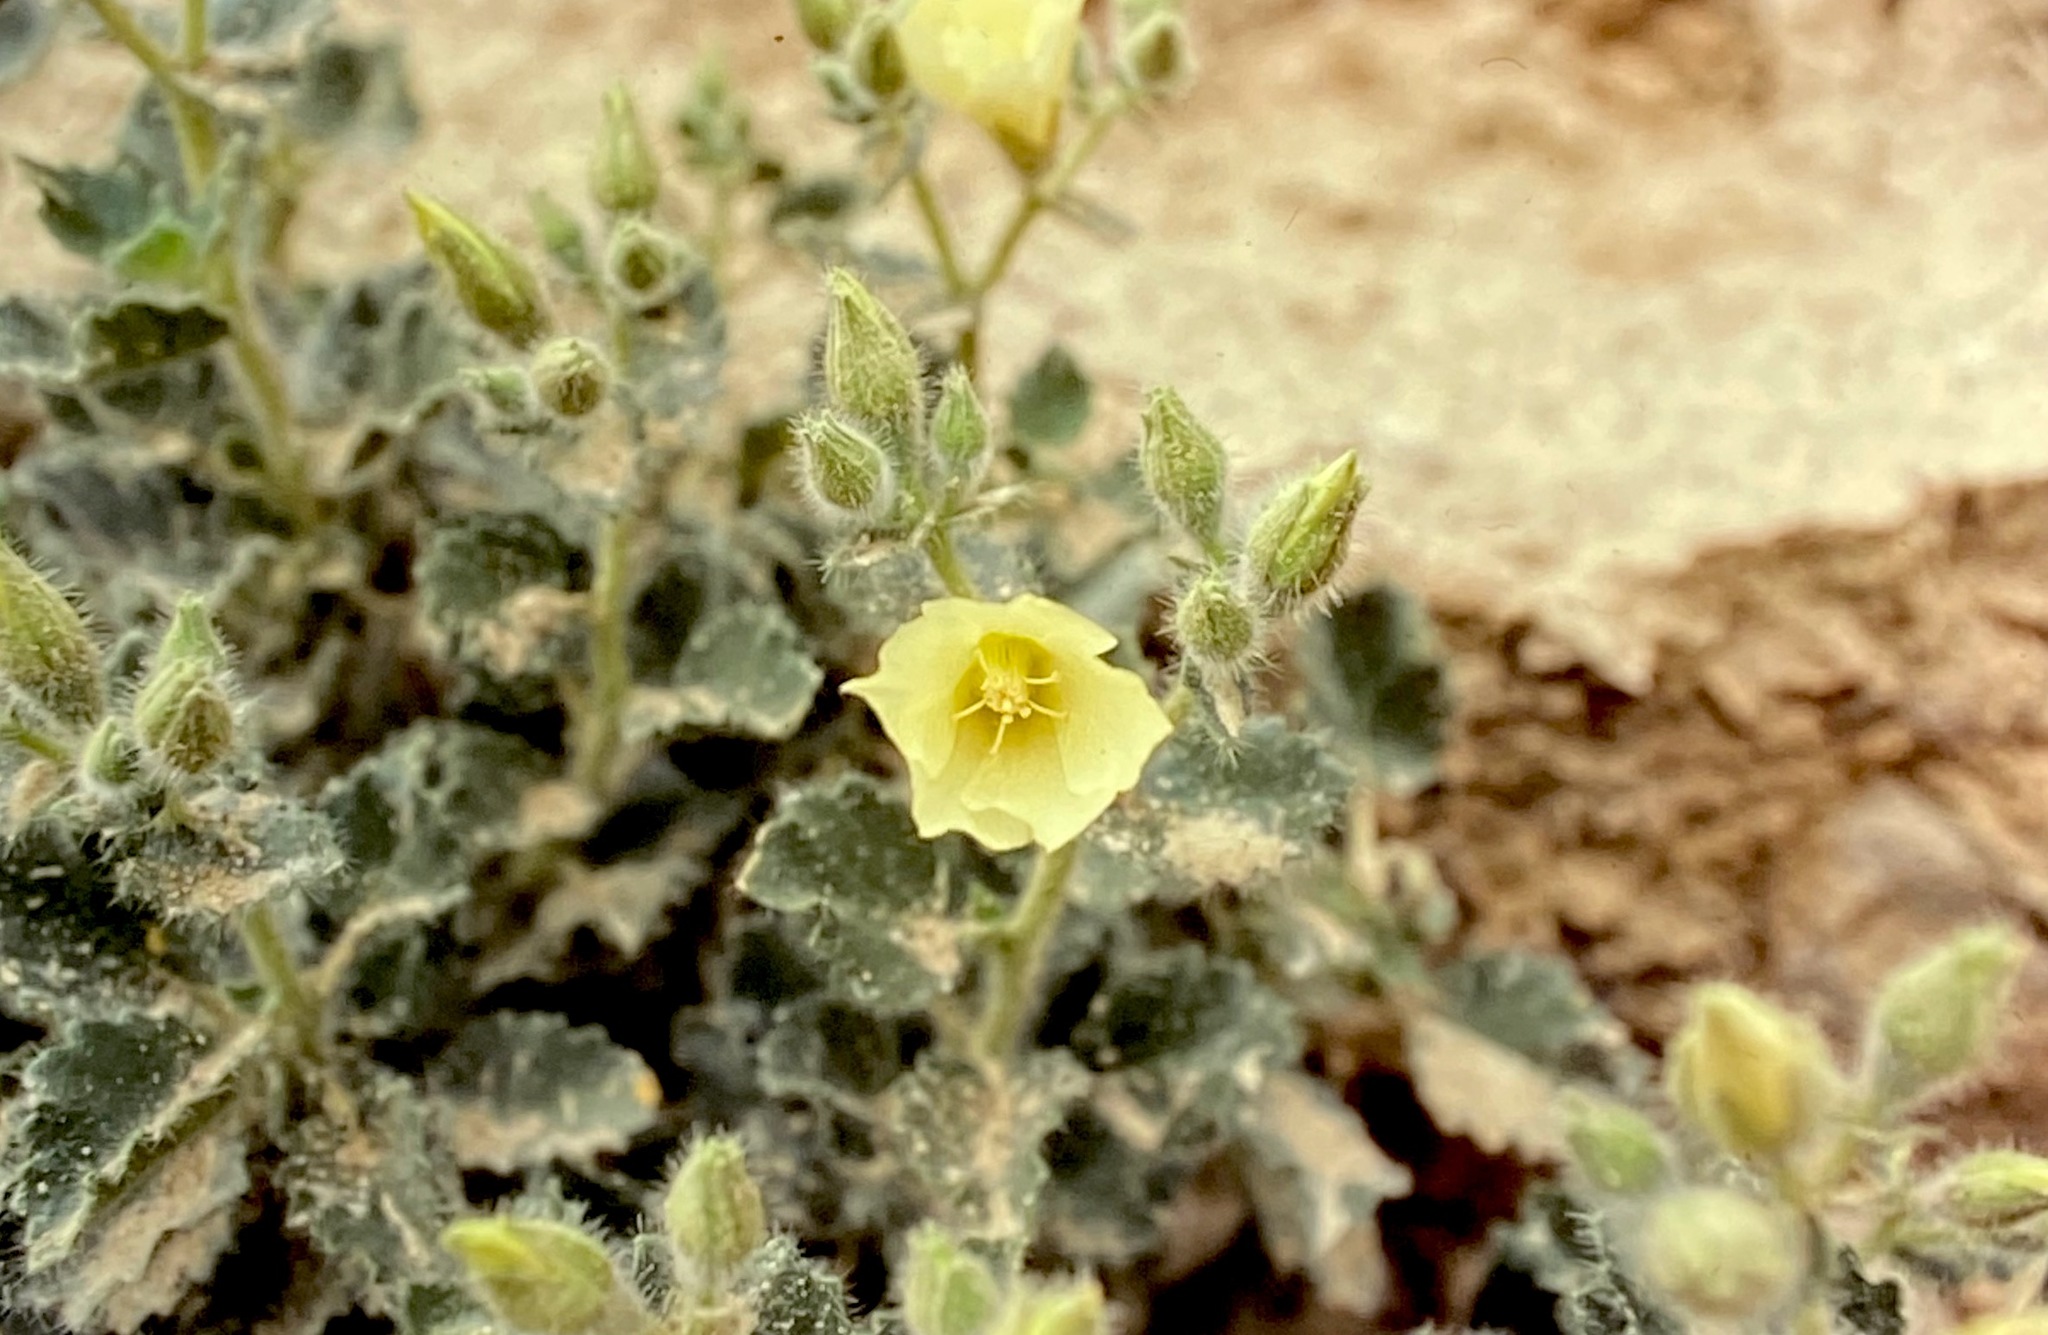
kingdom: Plantae
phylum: Tracheophyta
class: Magnoliopsida
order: Cornales
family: Loasaceae
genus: Eucnide
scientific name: Eucnide urens
